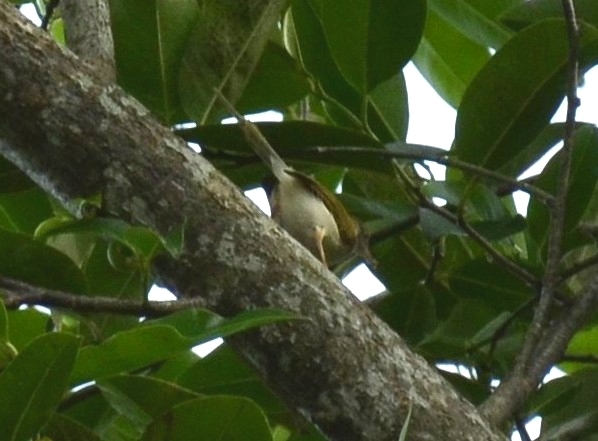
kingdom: Animalia
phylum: Chordata
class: Aves
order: Passeriformes
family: Cisticolidae
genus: Orthotomus
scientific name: Orthotomus sutorius
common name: Common tailorbird
